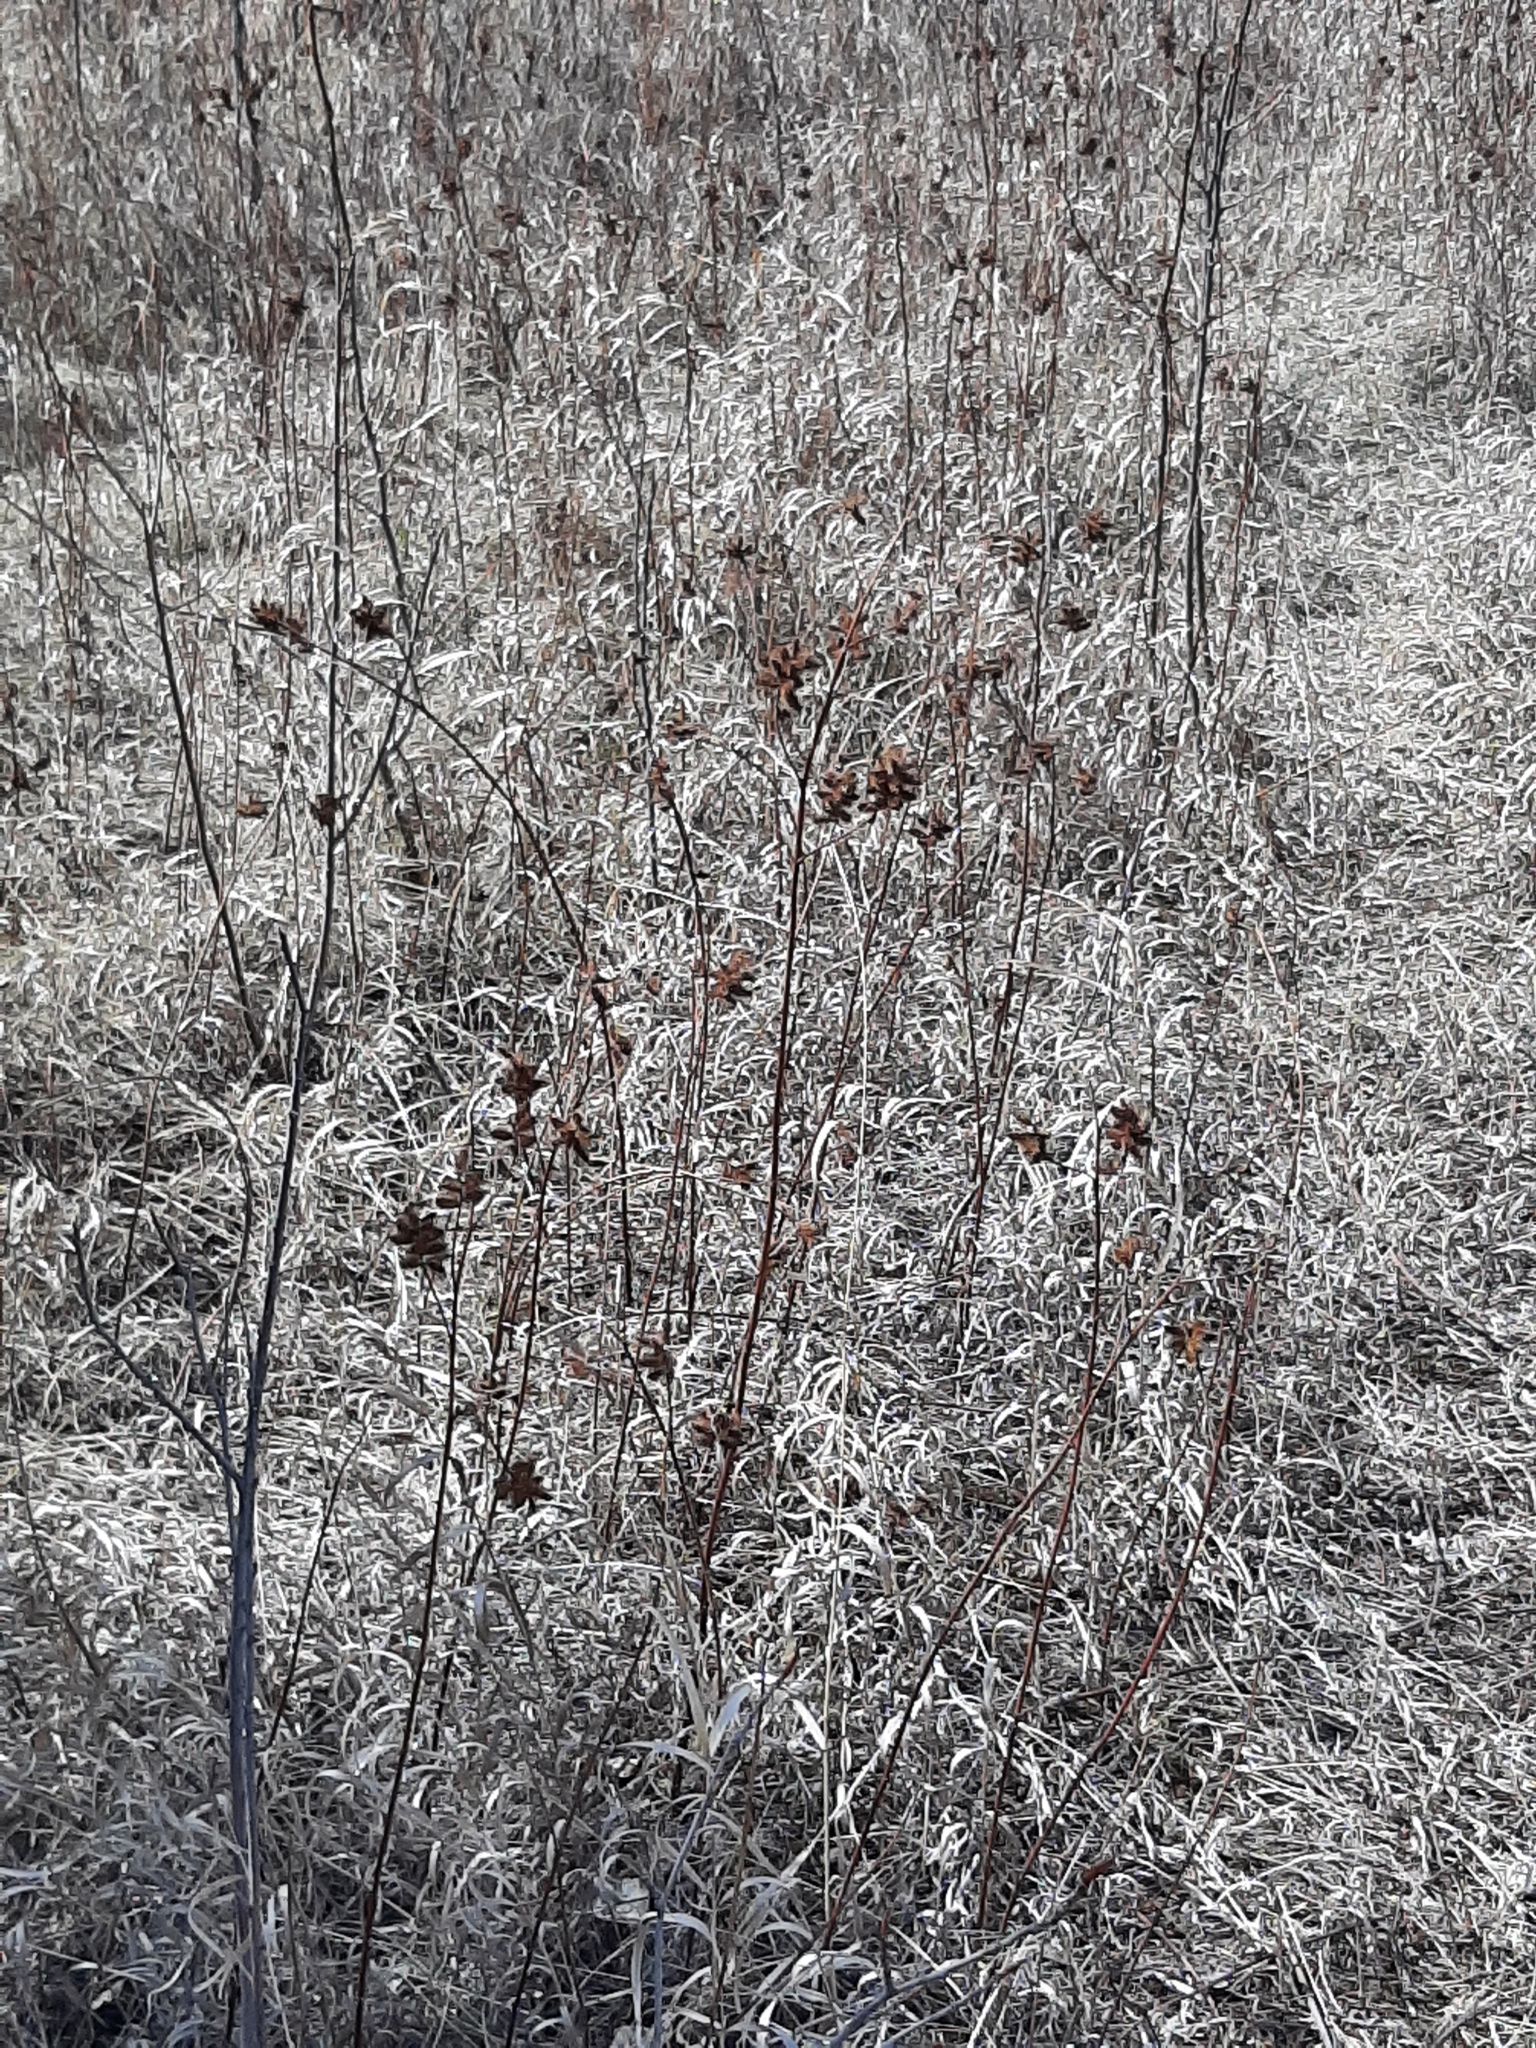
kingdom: Plantae
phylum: Tracheophyta
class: Magnoliopsida
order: Fabales
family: Fabaceae
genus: Glycyrrhiza
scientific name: Glycyrrhiza lepidota
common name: American liquorice
